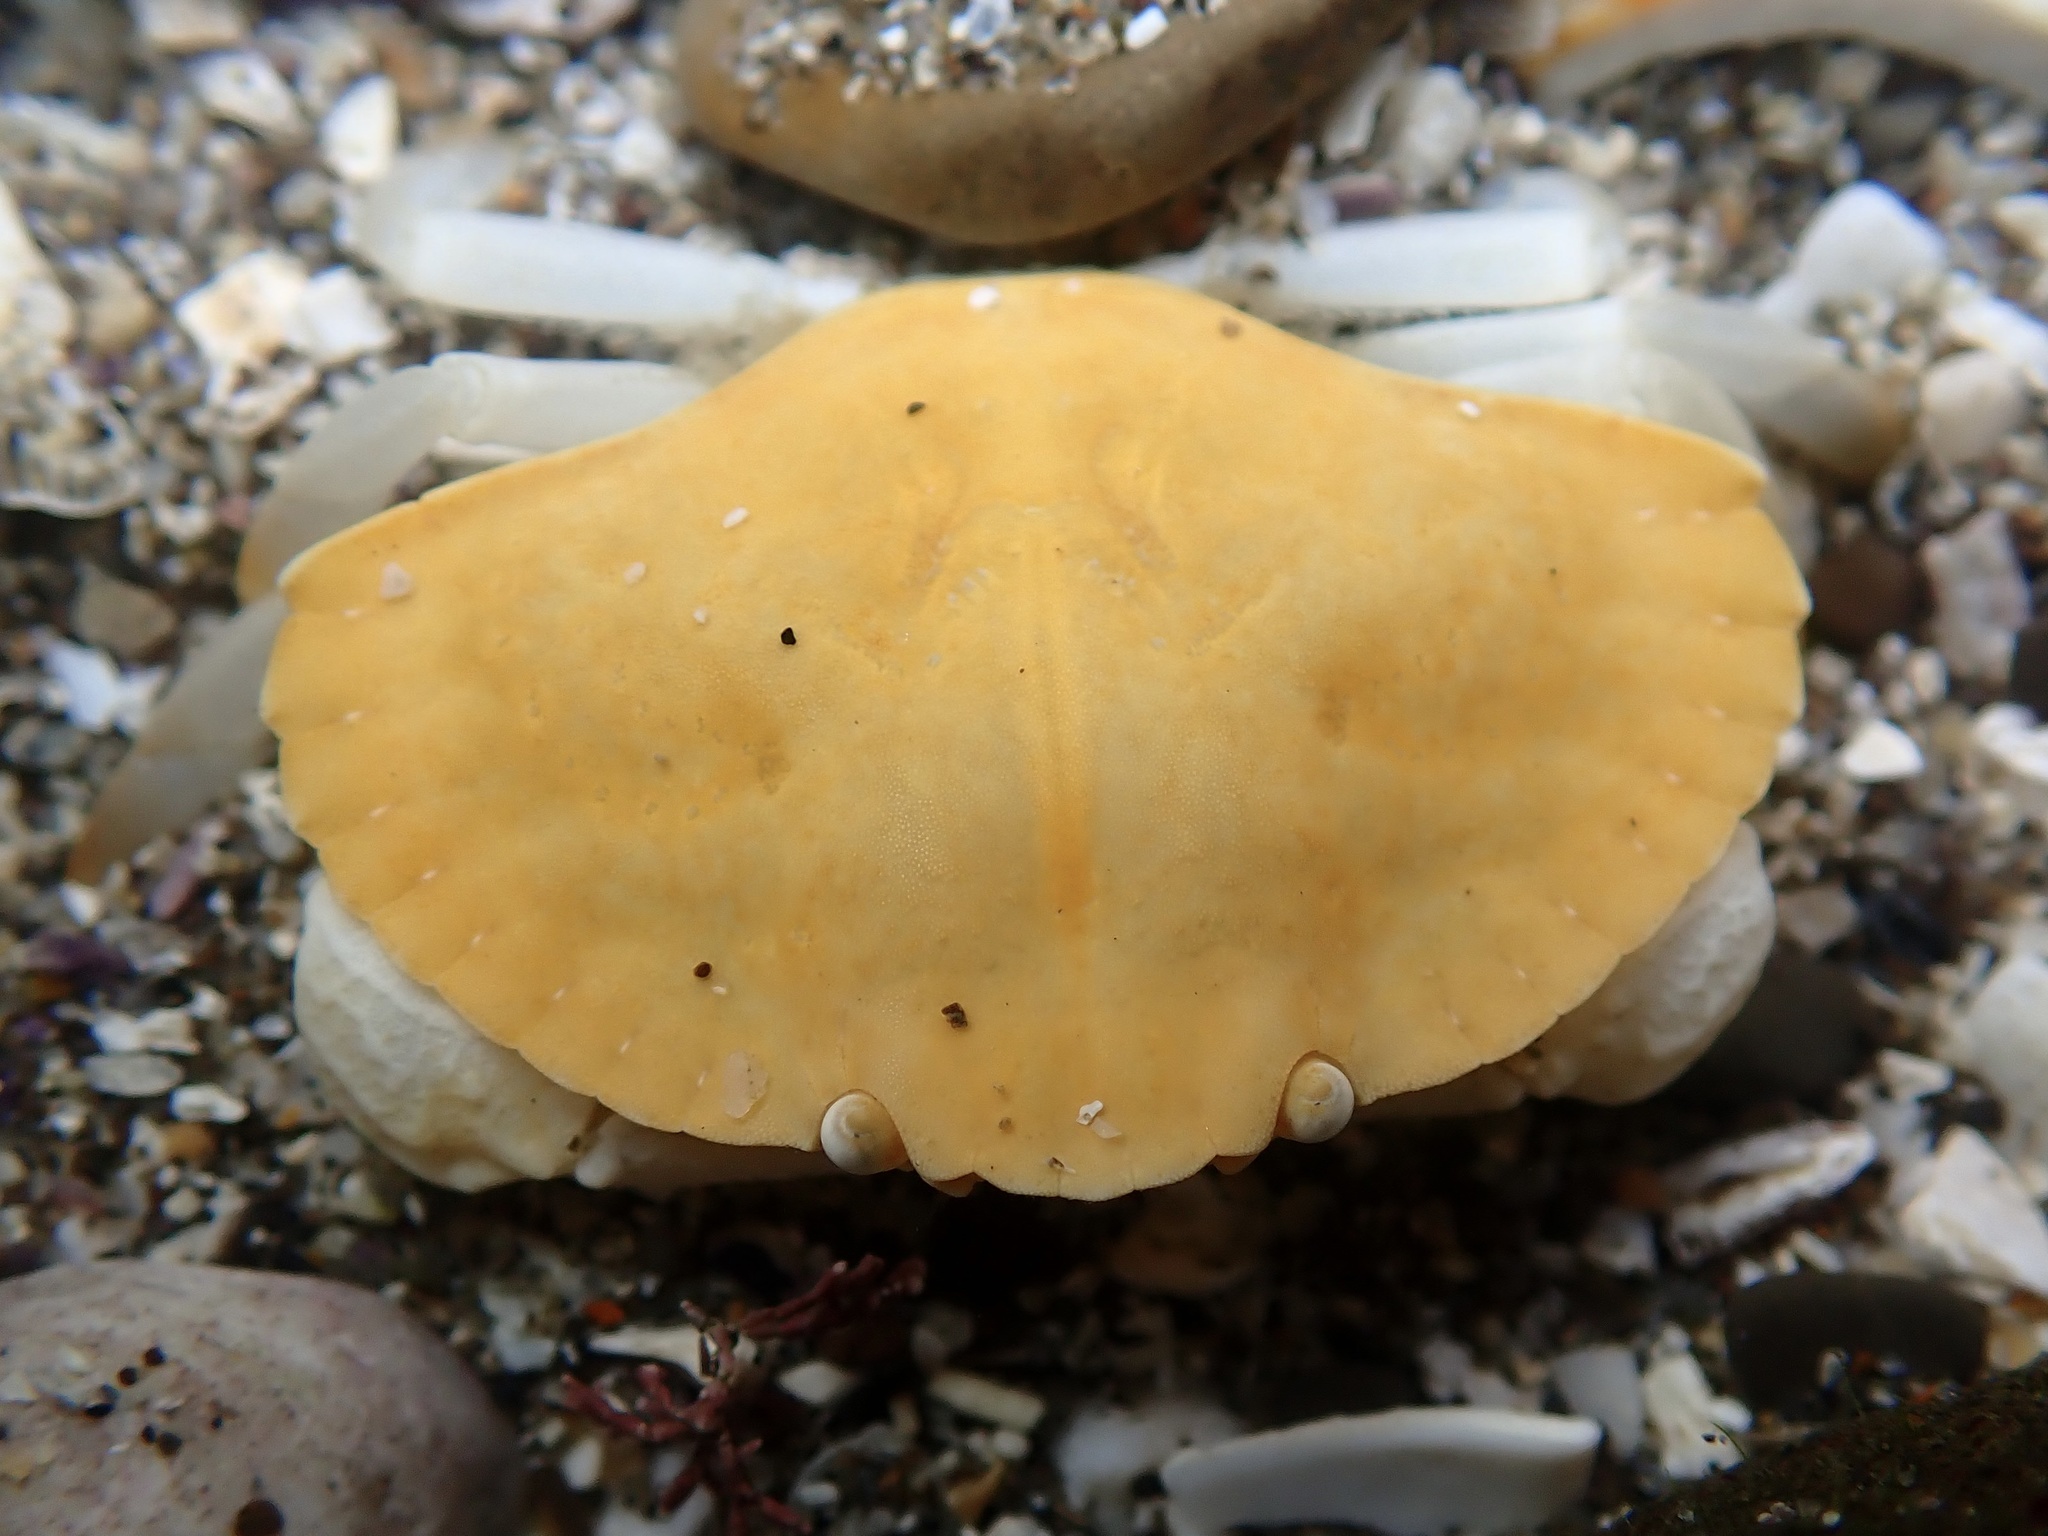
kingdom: Animalia
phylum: Arthropoda
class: Malacostraca
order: Decapoda
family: Cancridae
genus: Cancer
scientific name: Cancer productus
